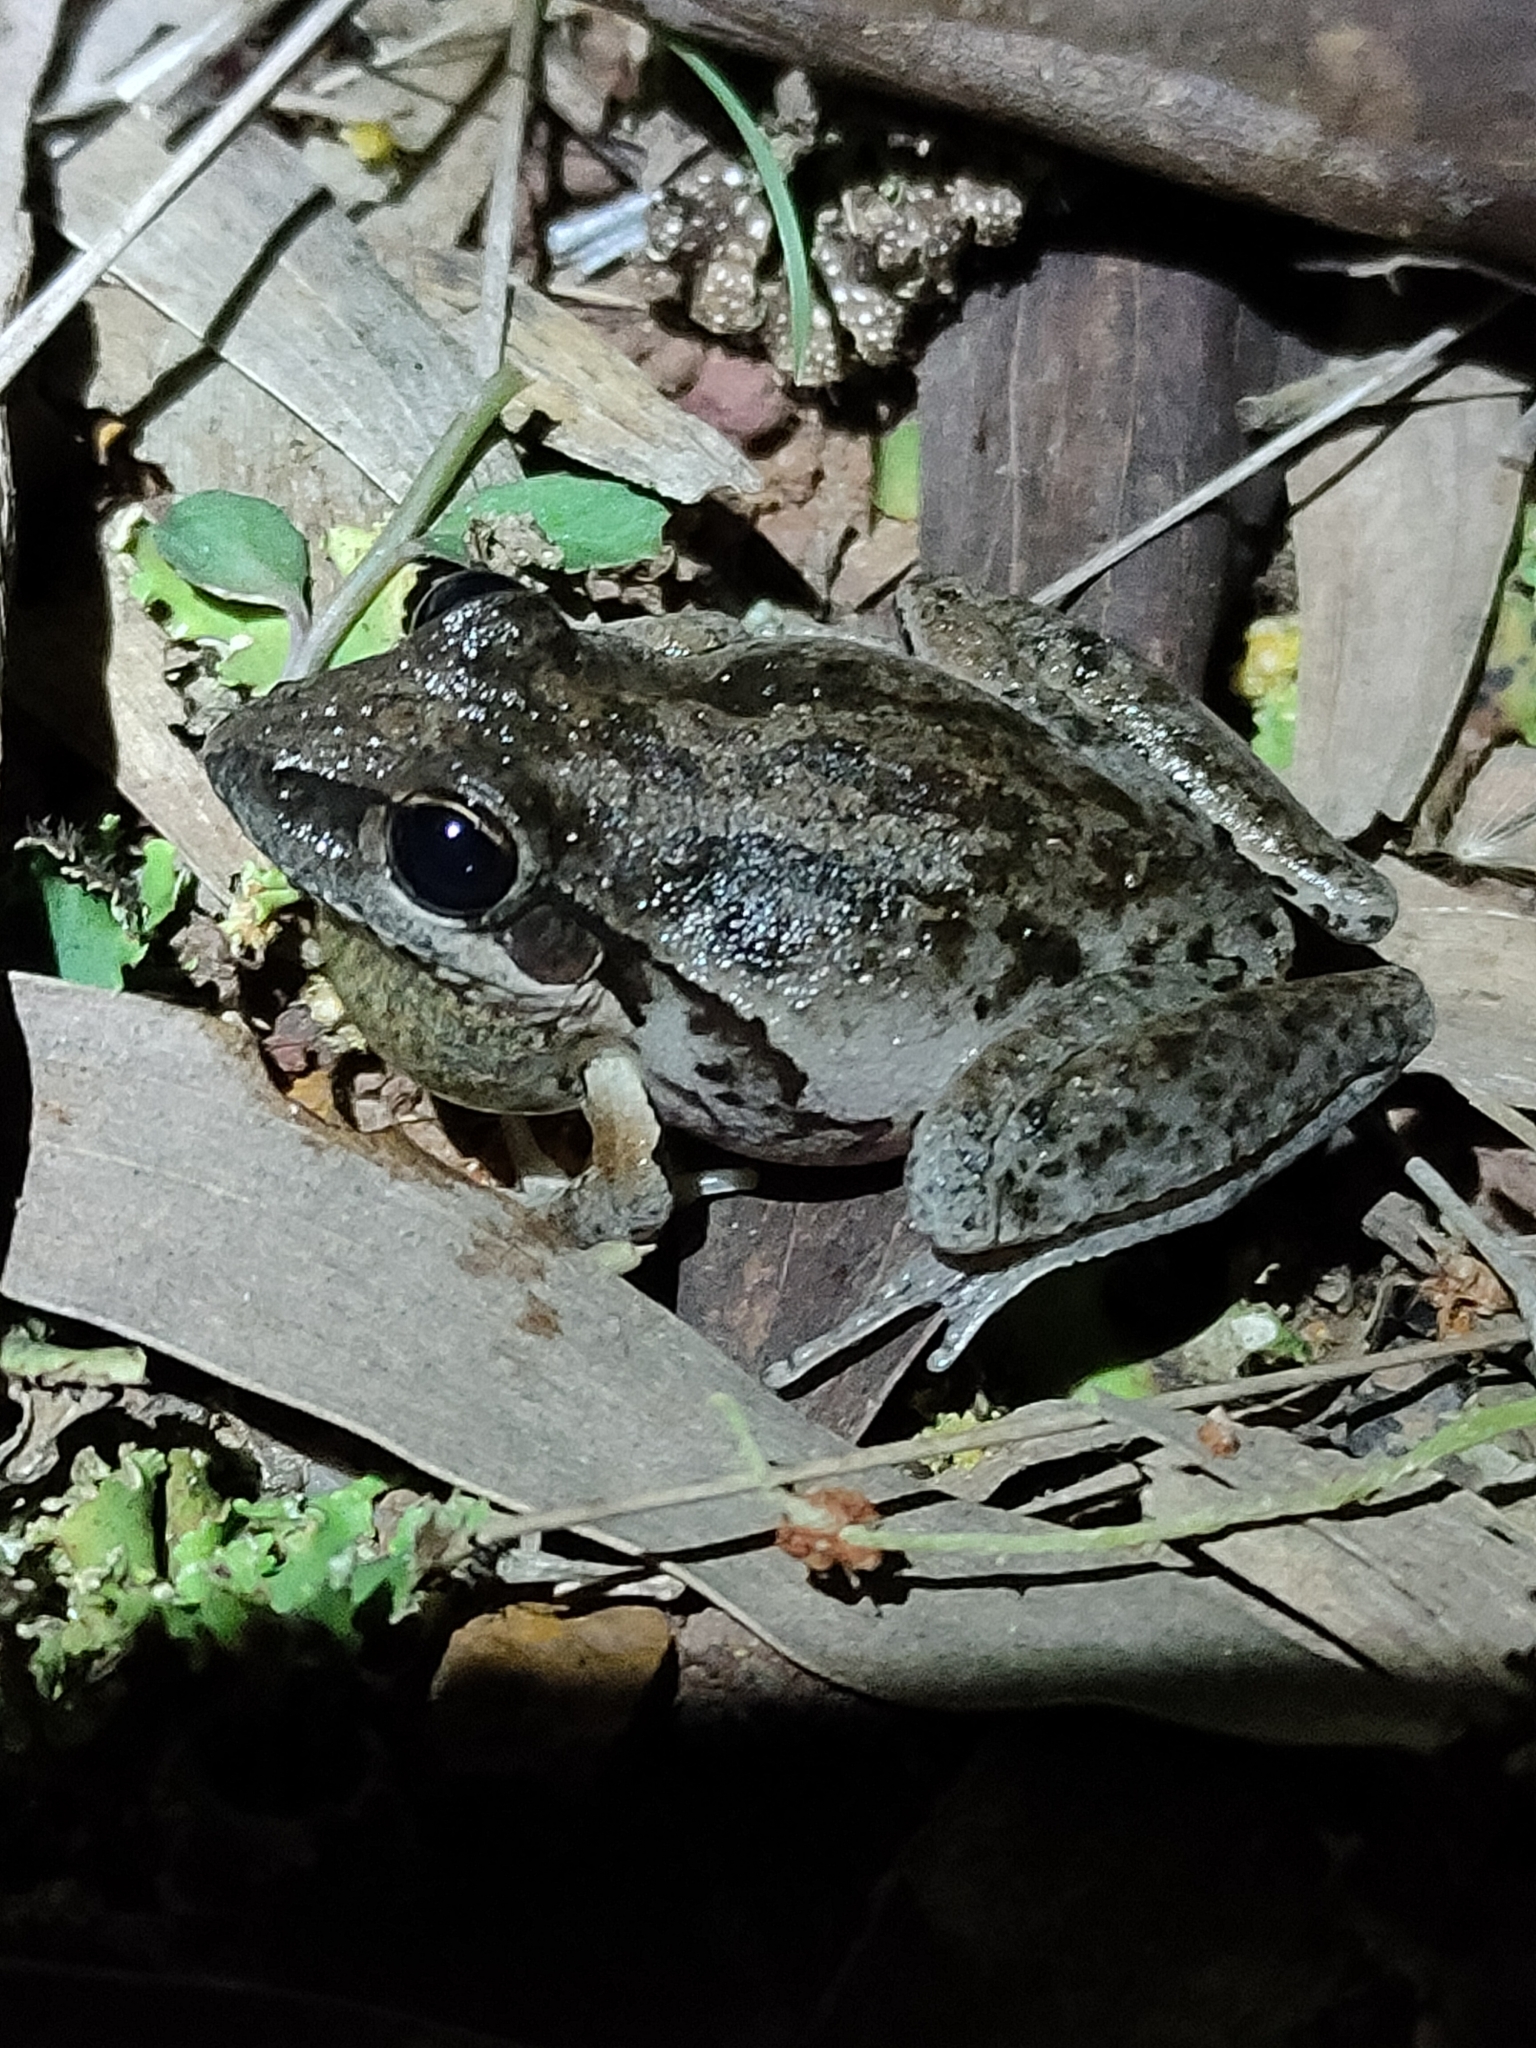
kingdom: Animalia
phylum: Chordata
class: Amphibia
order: Anura
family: Pelodryadidae
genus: Litoria
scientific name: Litoria latopalmata
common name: Broad-palmed rocket frog
